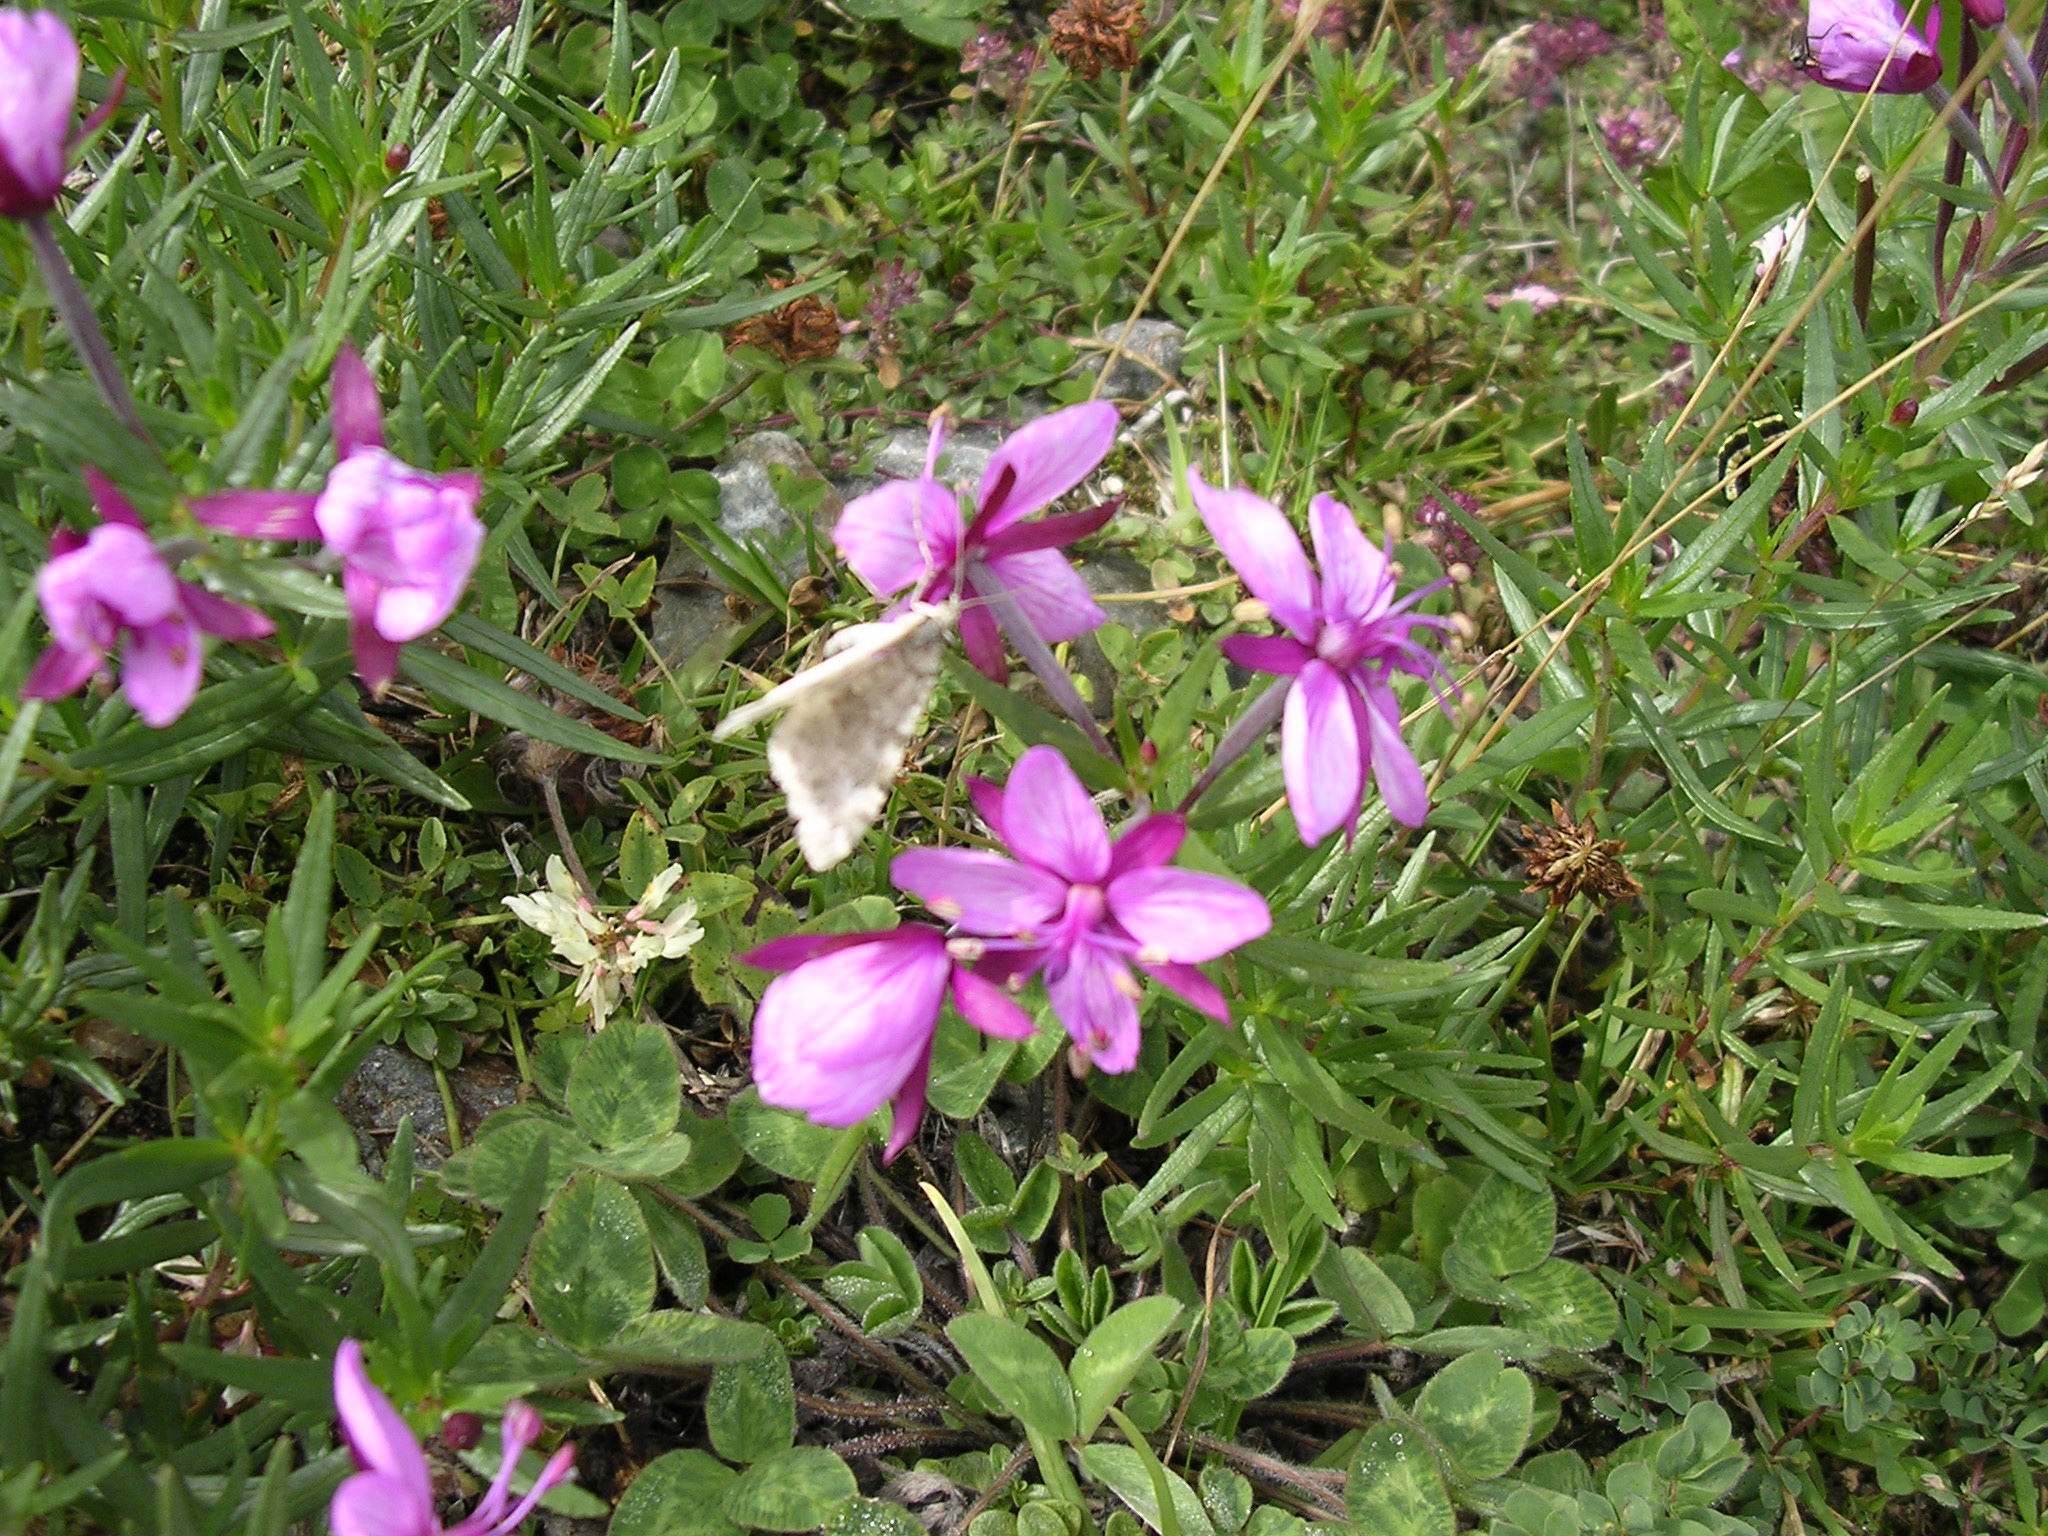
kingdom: Plantae
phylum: Tracheophyta
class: Magnoliopsida
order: Myrtales
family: Onagraceae
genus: Chamaenerion
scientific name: Chamaenerion fleischeri
